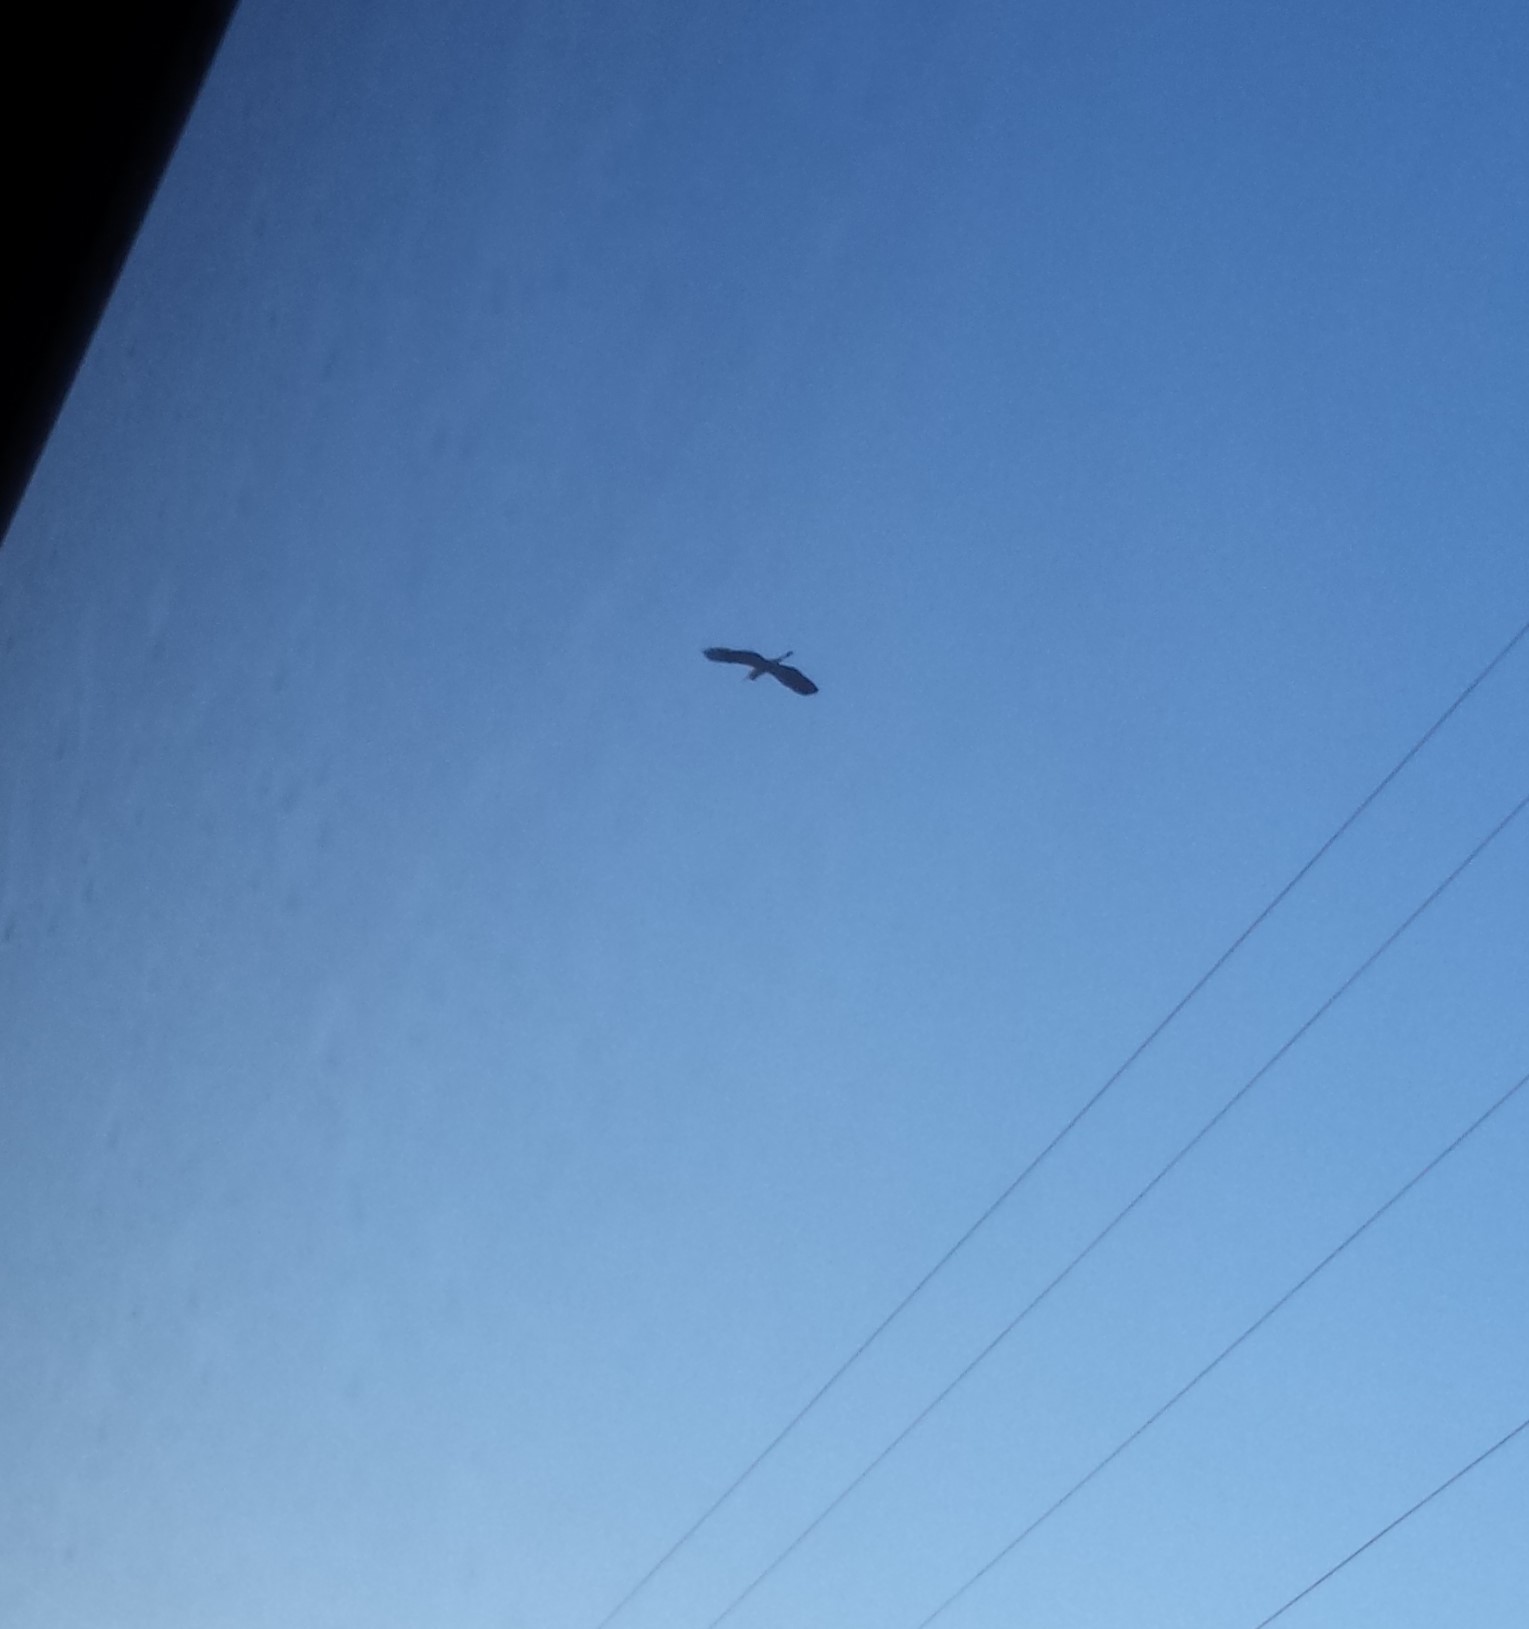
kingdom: Animalia
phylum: Chordata
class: Aves
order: Pelecaniformes
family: Ardeidae
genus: Ardea
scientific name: Ardea herodias
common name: Great blue heron
